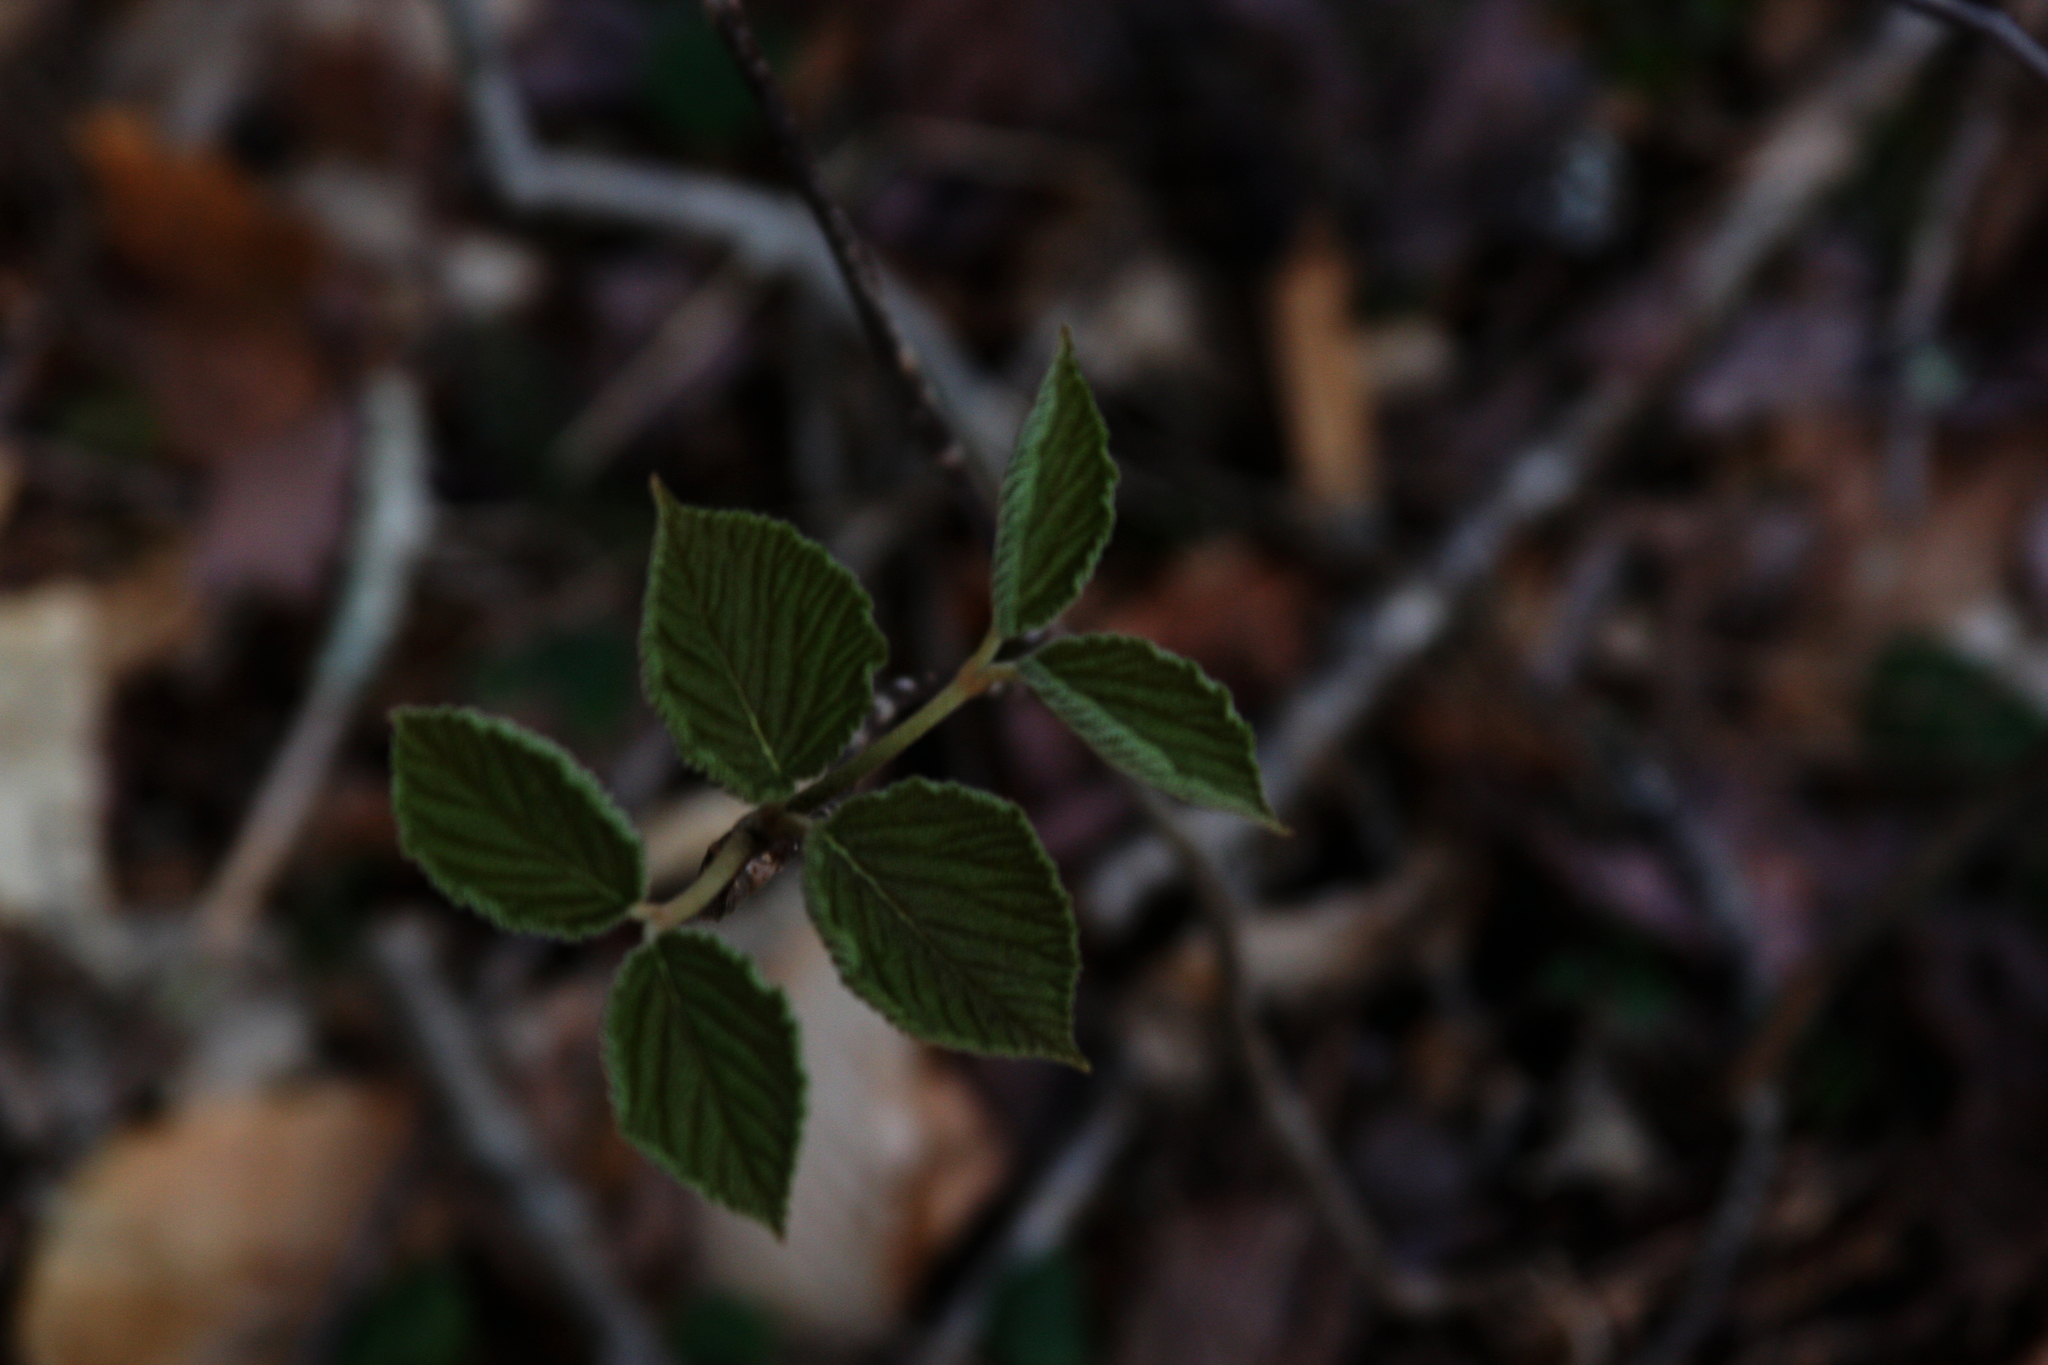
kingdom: Plantae
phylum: Tracheophyta
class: Magnoliopsida
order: Dipsacales
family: Viburnaceae
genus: Viburnum
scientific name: Viburnum lantanoides
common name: Hobblebush
